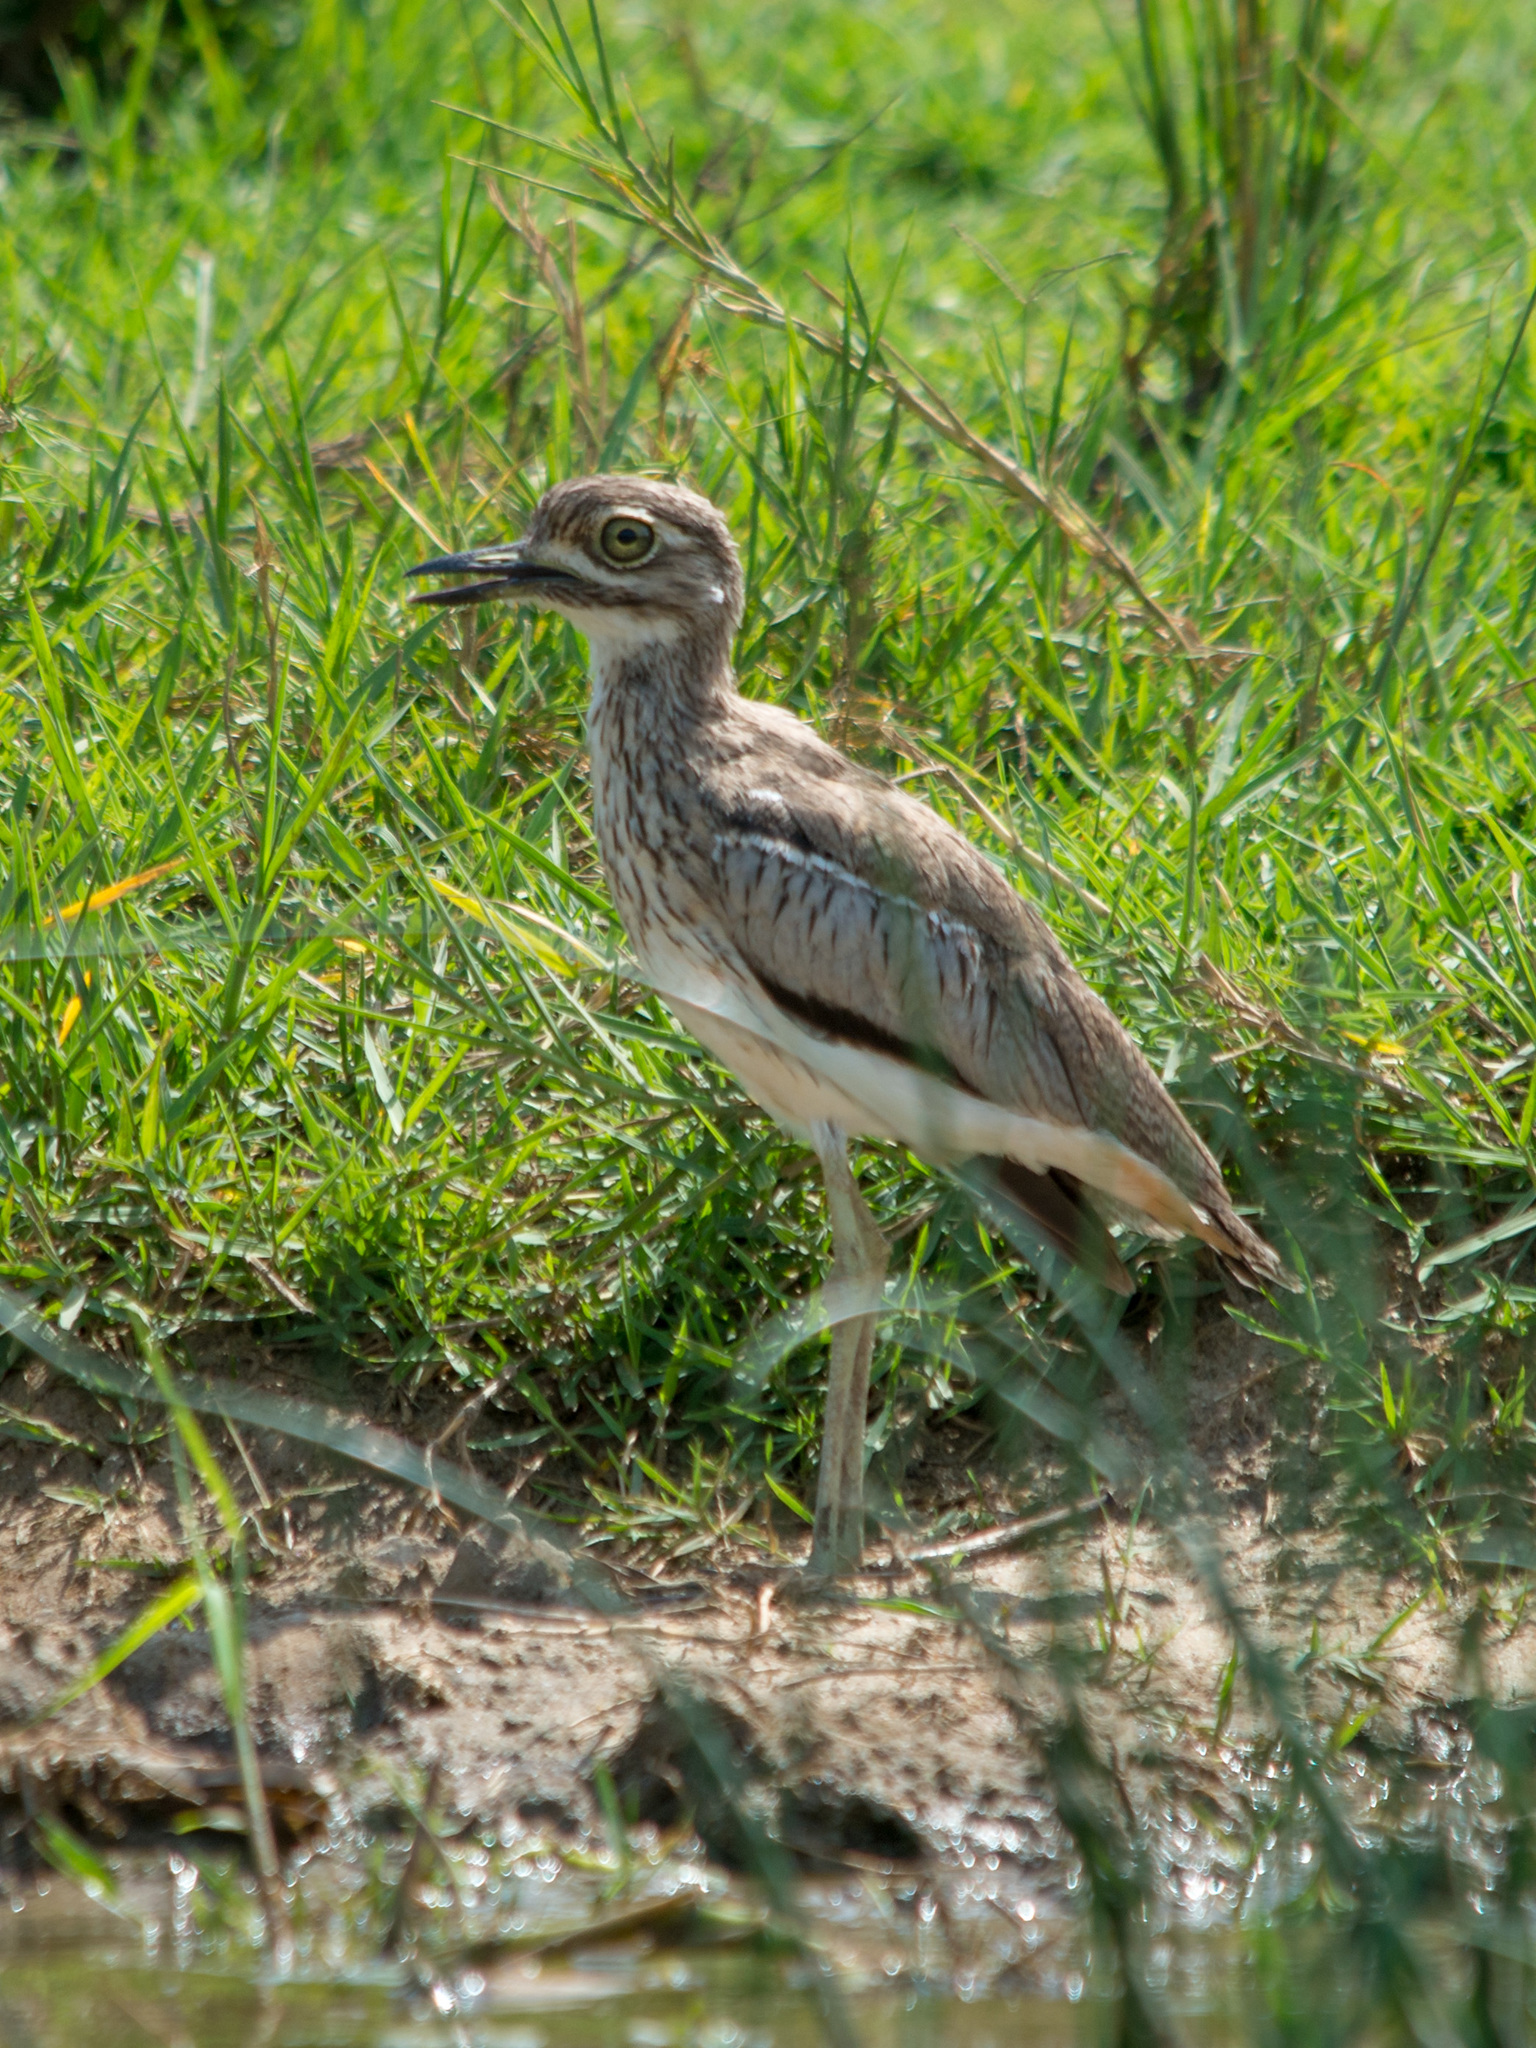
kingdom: Animalia
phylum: Chordata
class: Aves
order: Charadriiformes
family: Burhinidae
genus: Burhinus
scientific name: Burhinus vermiculatus
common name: Water thick-knee
